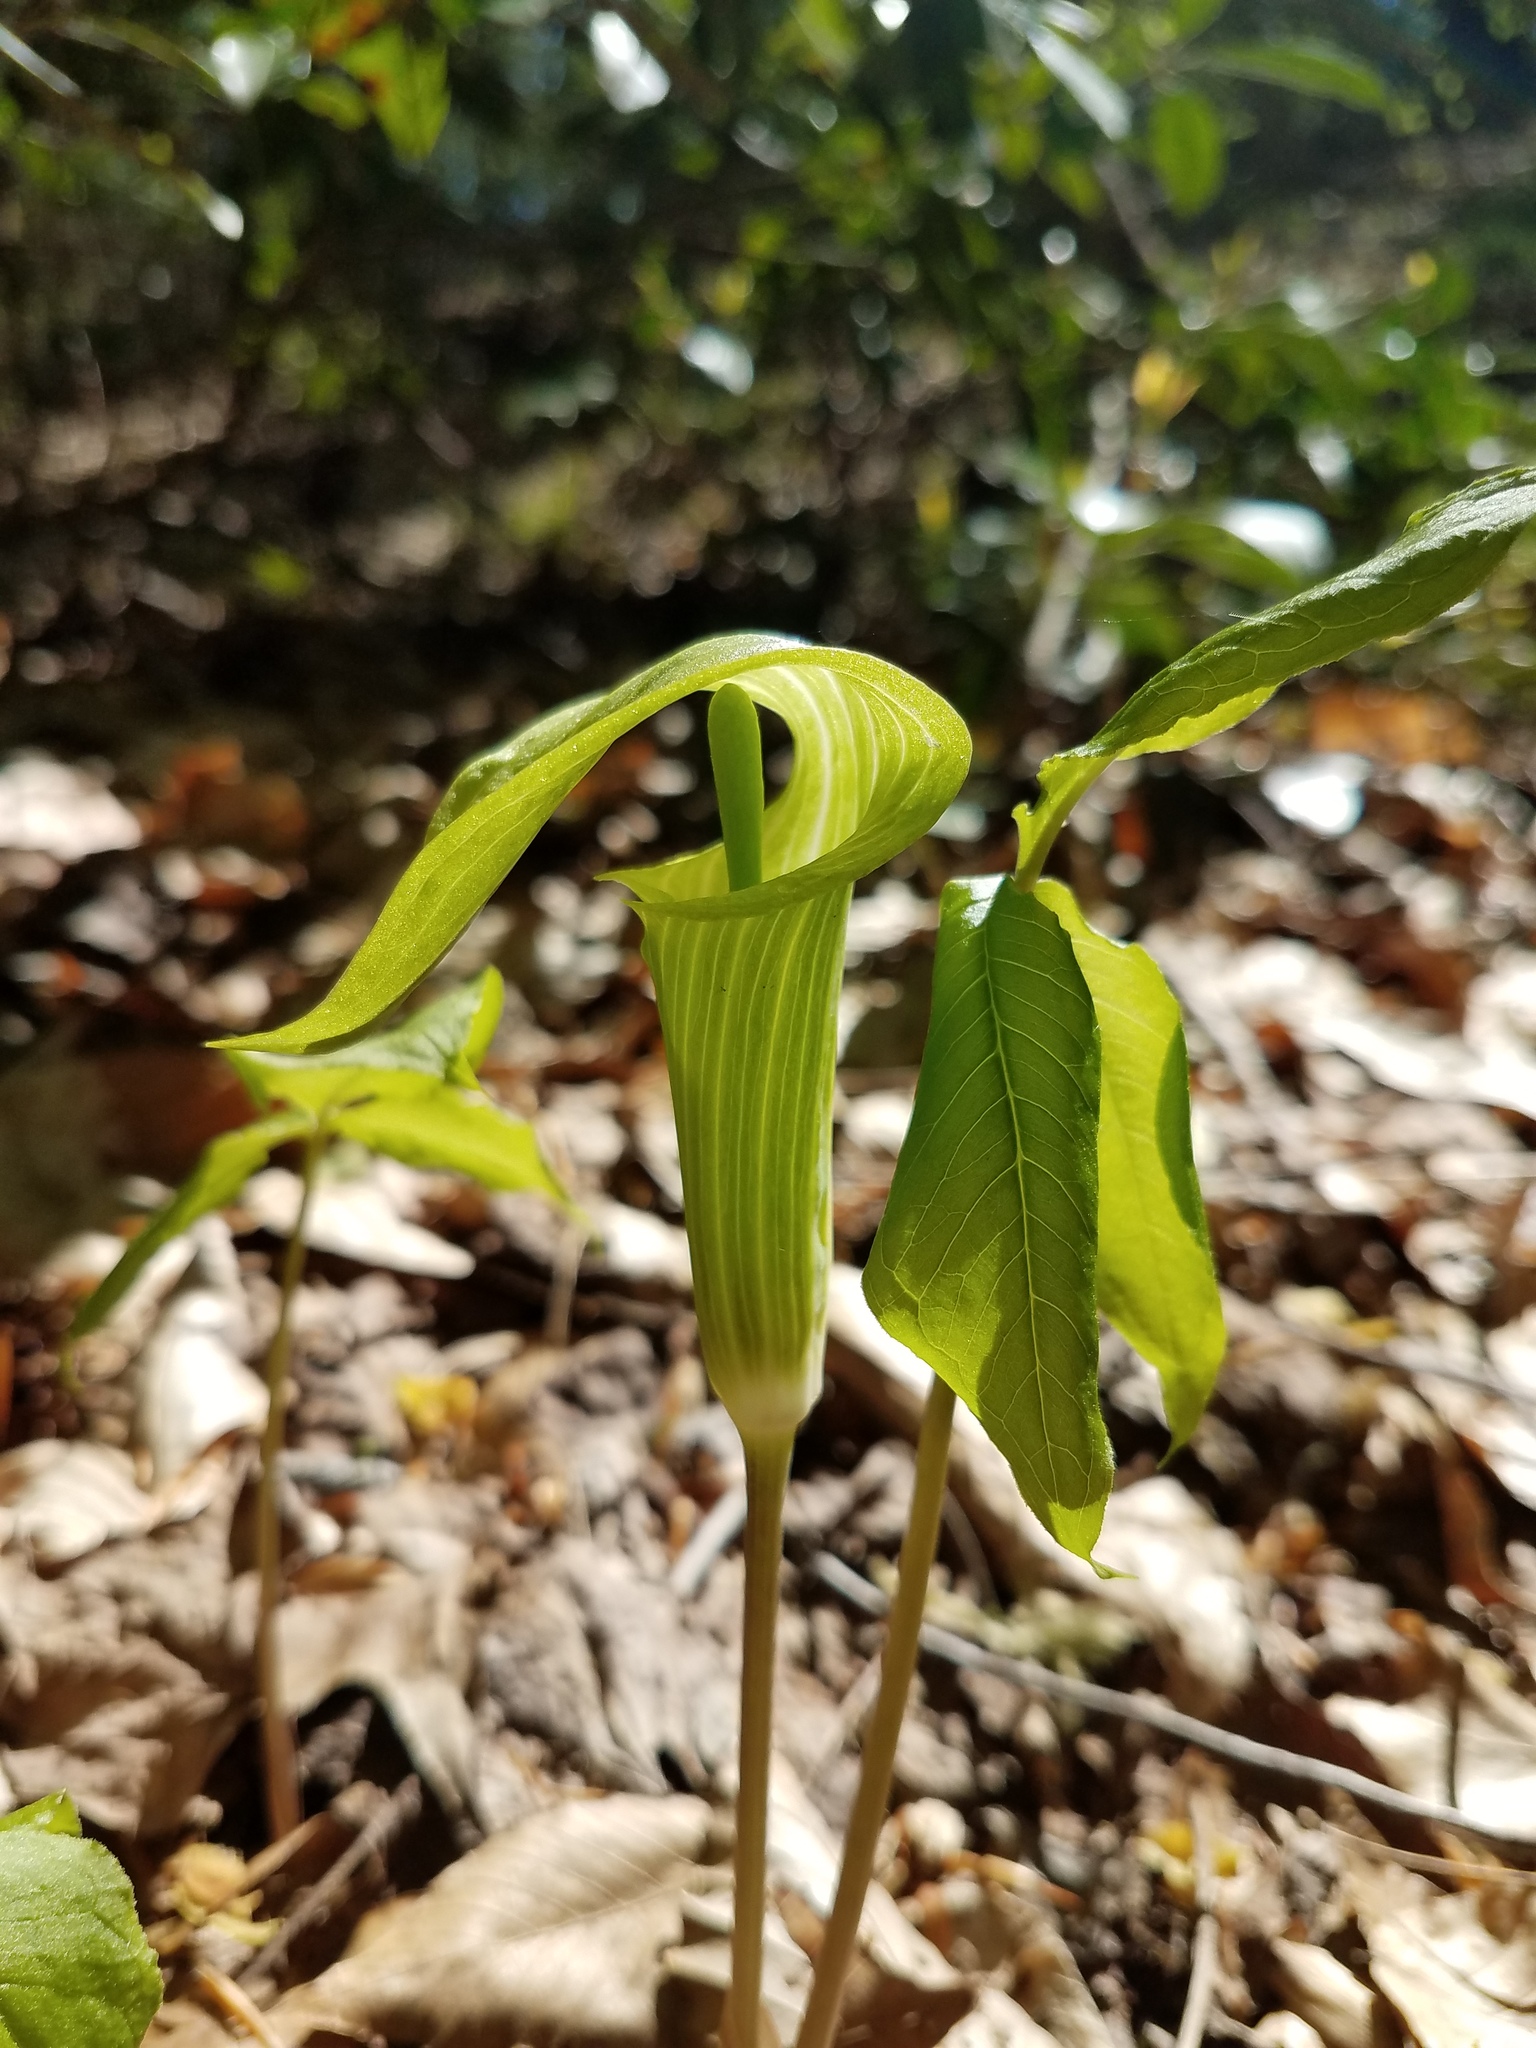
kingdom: Plantae
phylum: Tracheophyta
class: Liliopsida
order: Alismatales
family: Araceae
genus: Arisaema
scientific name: Arisaema triphyllum
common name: Jack-in-the-pulpit
